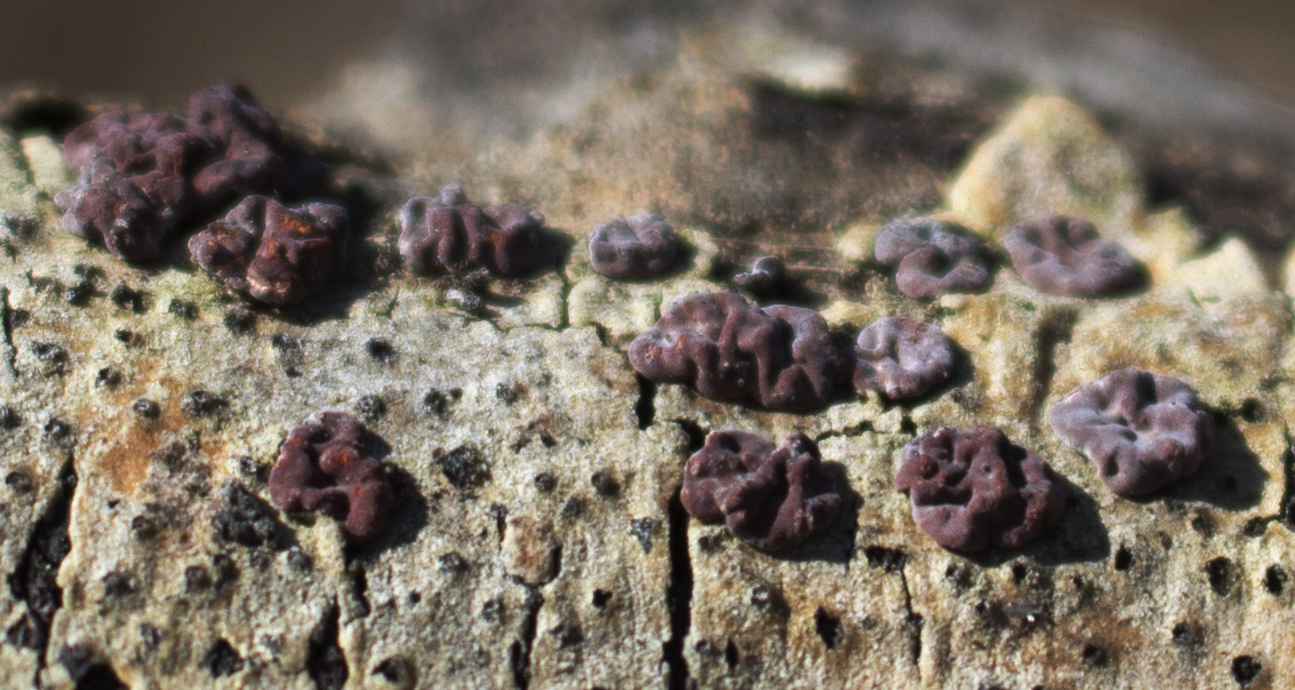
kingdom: Fungi
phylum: Basidiomycota
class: Agaricomycetes
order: Russulales
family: Peniophoraceae
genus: Peniophora
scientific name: Peniophora rufa
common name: Red tree brain fungus
